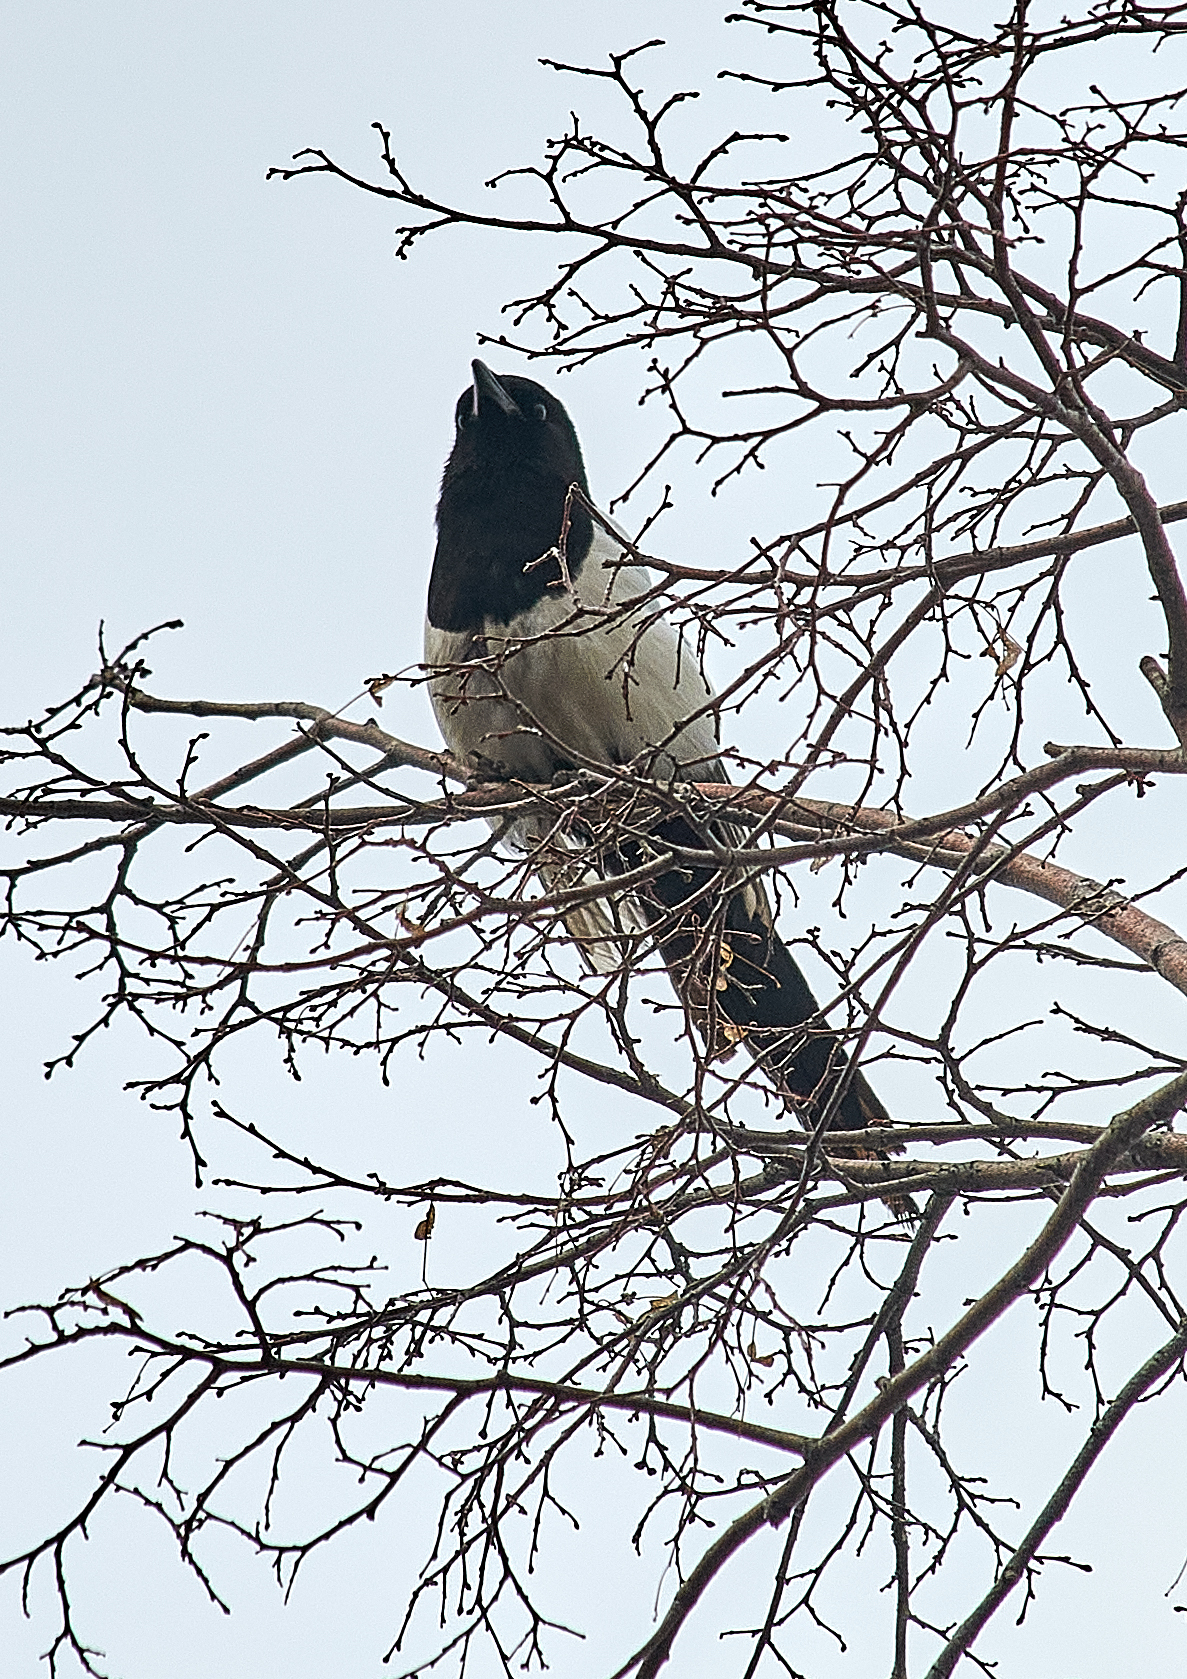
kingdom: Animalia
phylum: Chordata
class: Aves
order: Passeriformes
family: Corvidae
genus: Pica
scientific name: Pica pica
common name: Eurasian magpie
